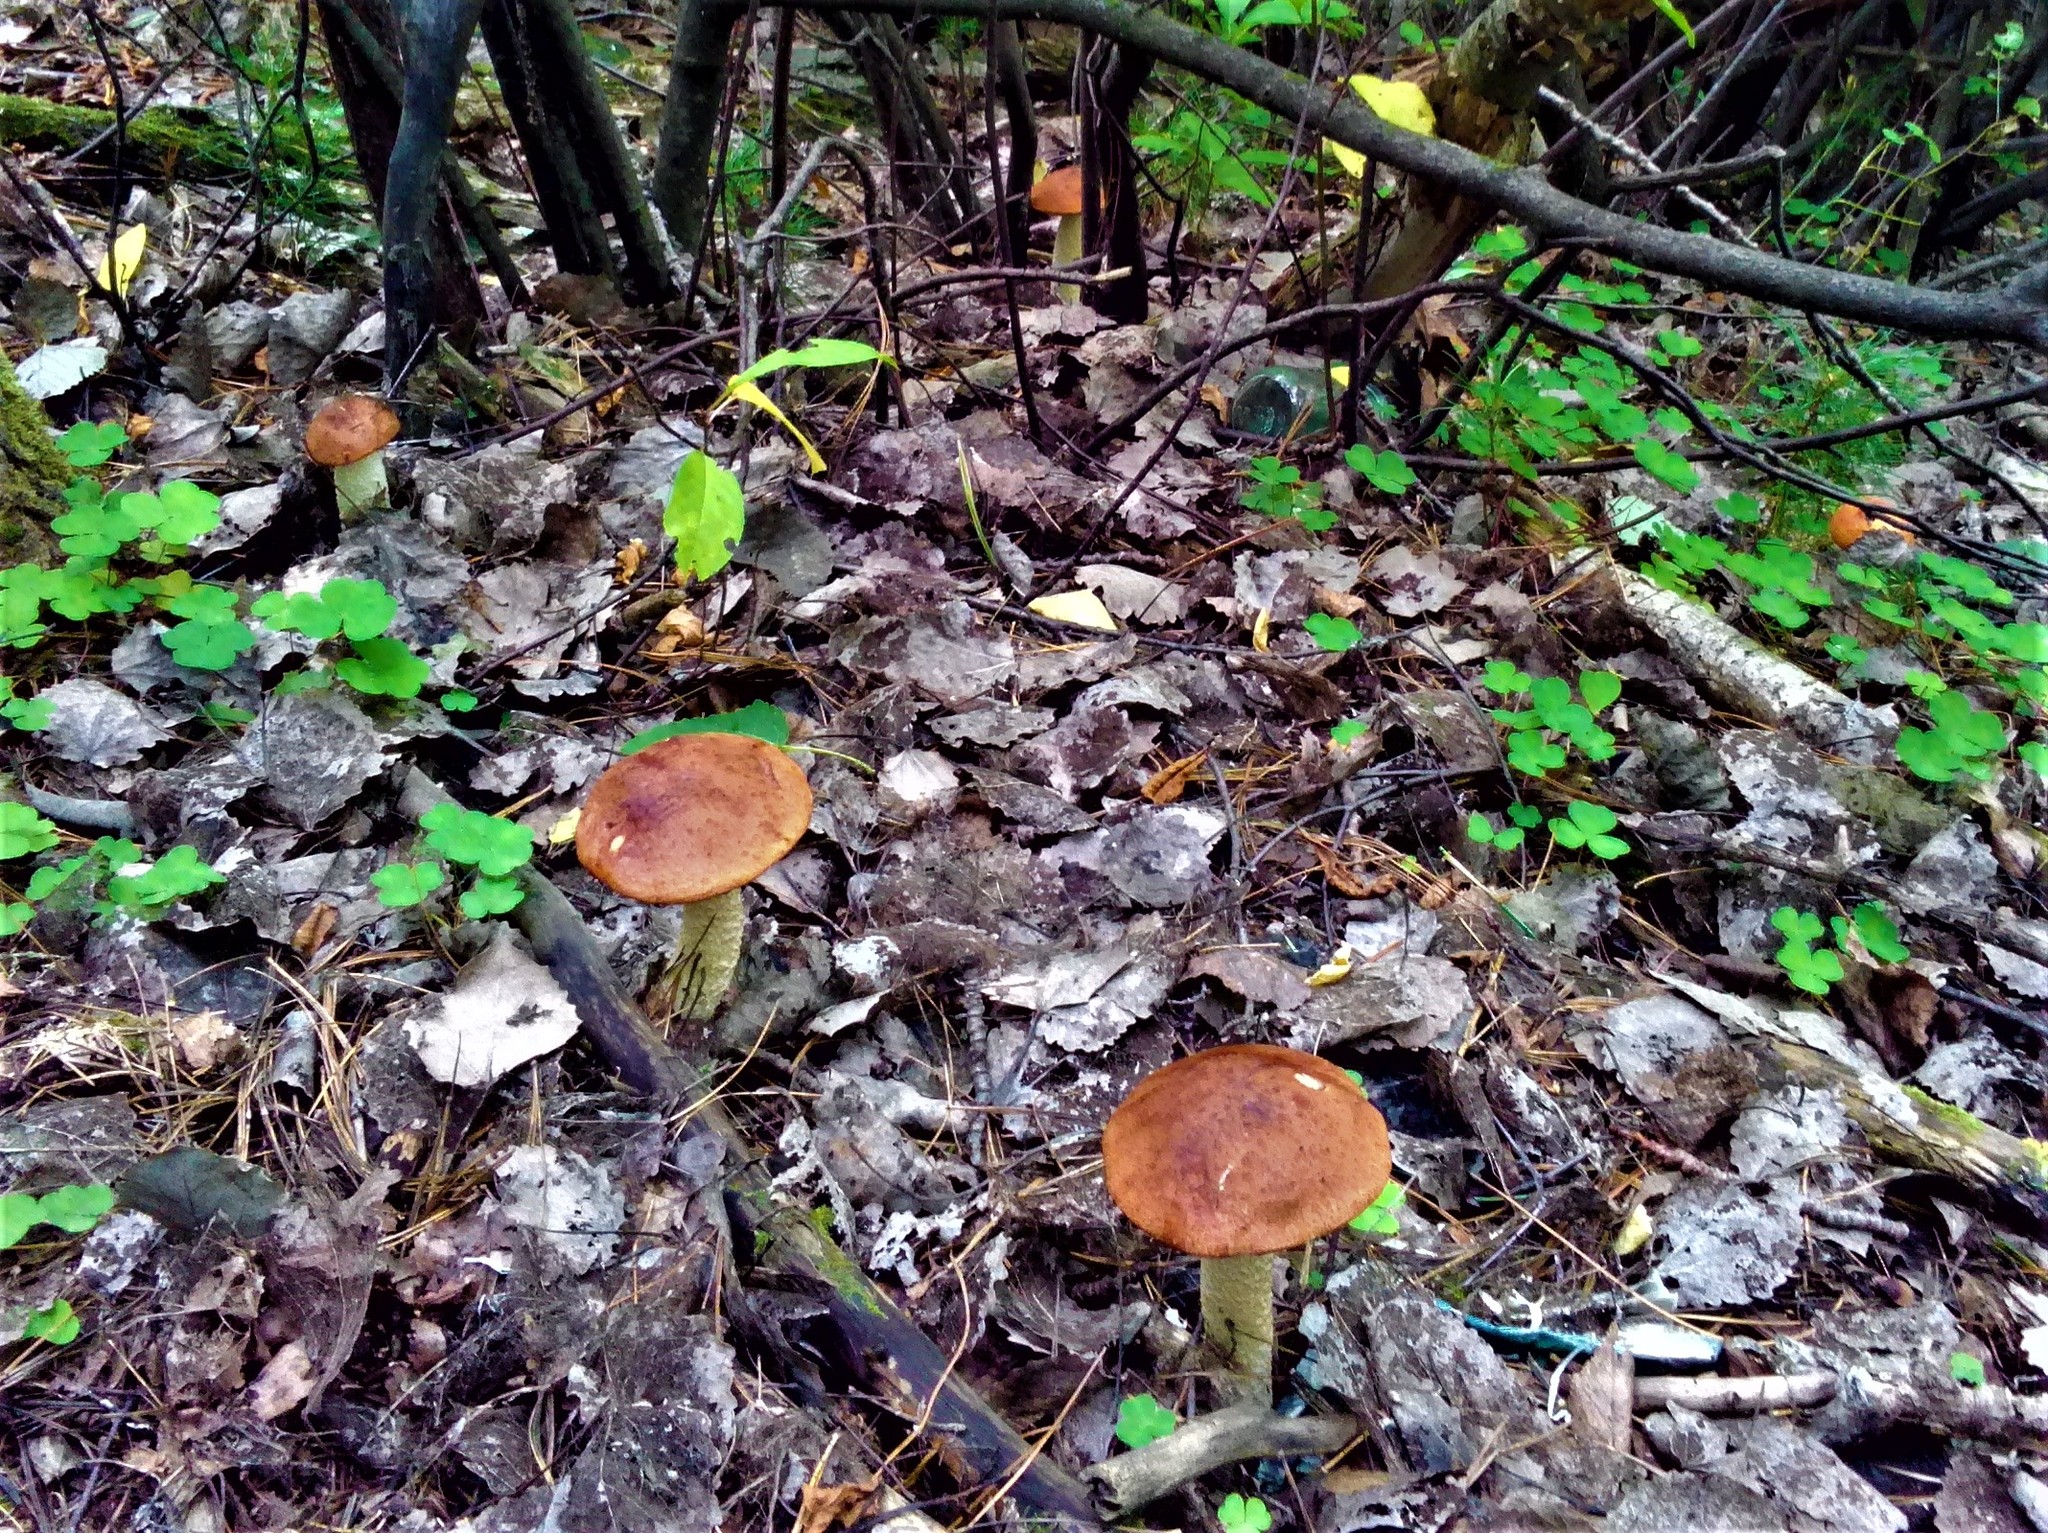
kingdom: Fungi
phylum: Basidiomycota
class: Agaricomycetes
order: Boletales
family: Boletaceae
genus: Leccinum
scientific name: Leccinum albostipitatum
